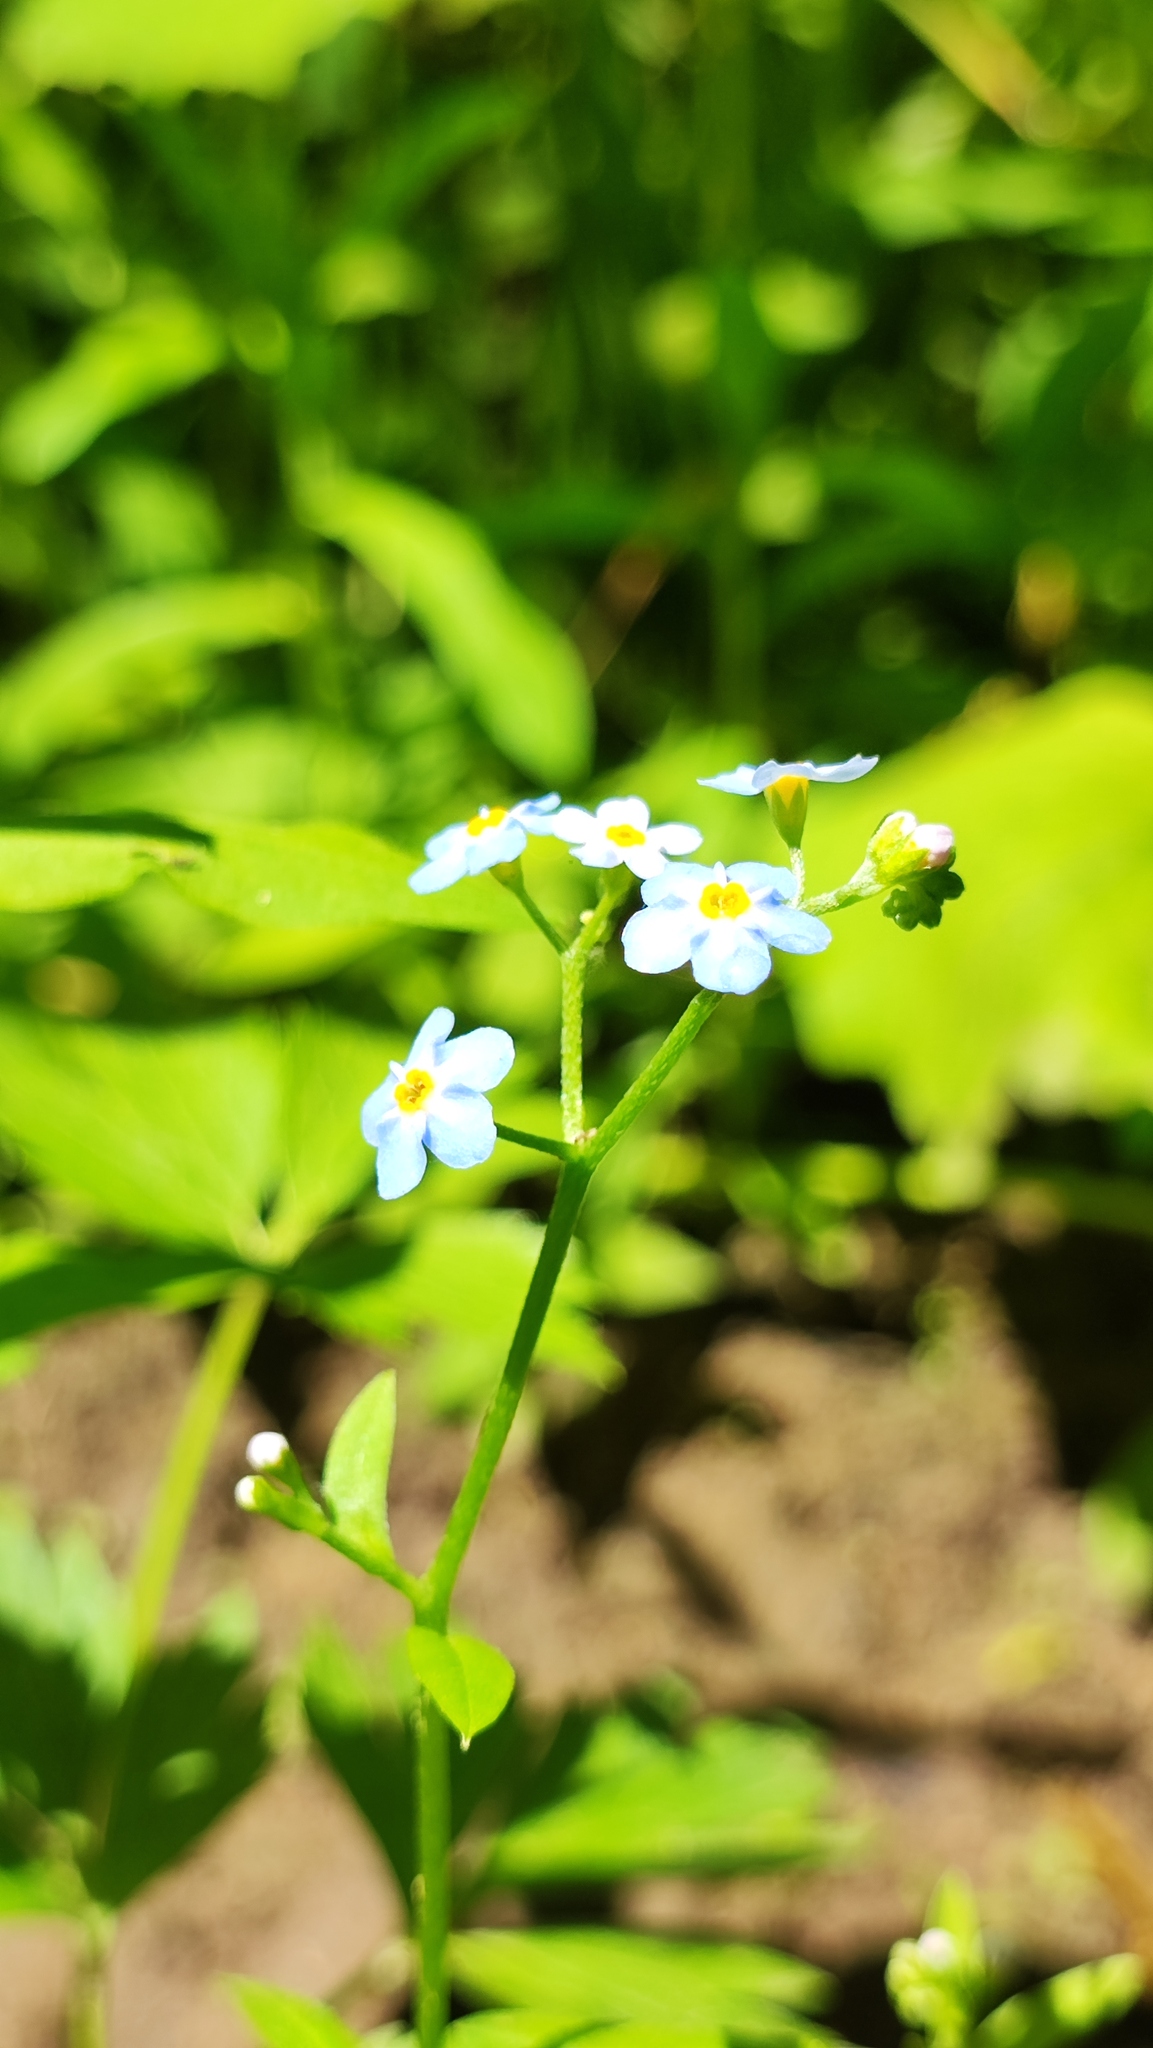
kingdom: Plantae
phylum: Tracheophyta
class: Magnoliopsida
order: Boraginales
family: Boraginaceae
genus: Myosotis
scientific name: Myosotis scorpioides
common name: Water forget-me-not
